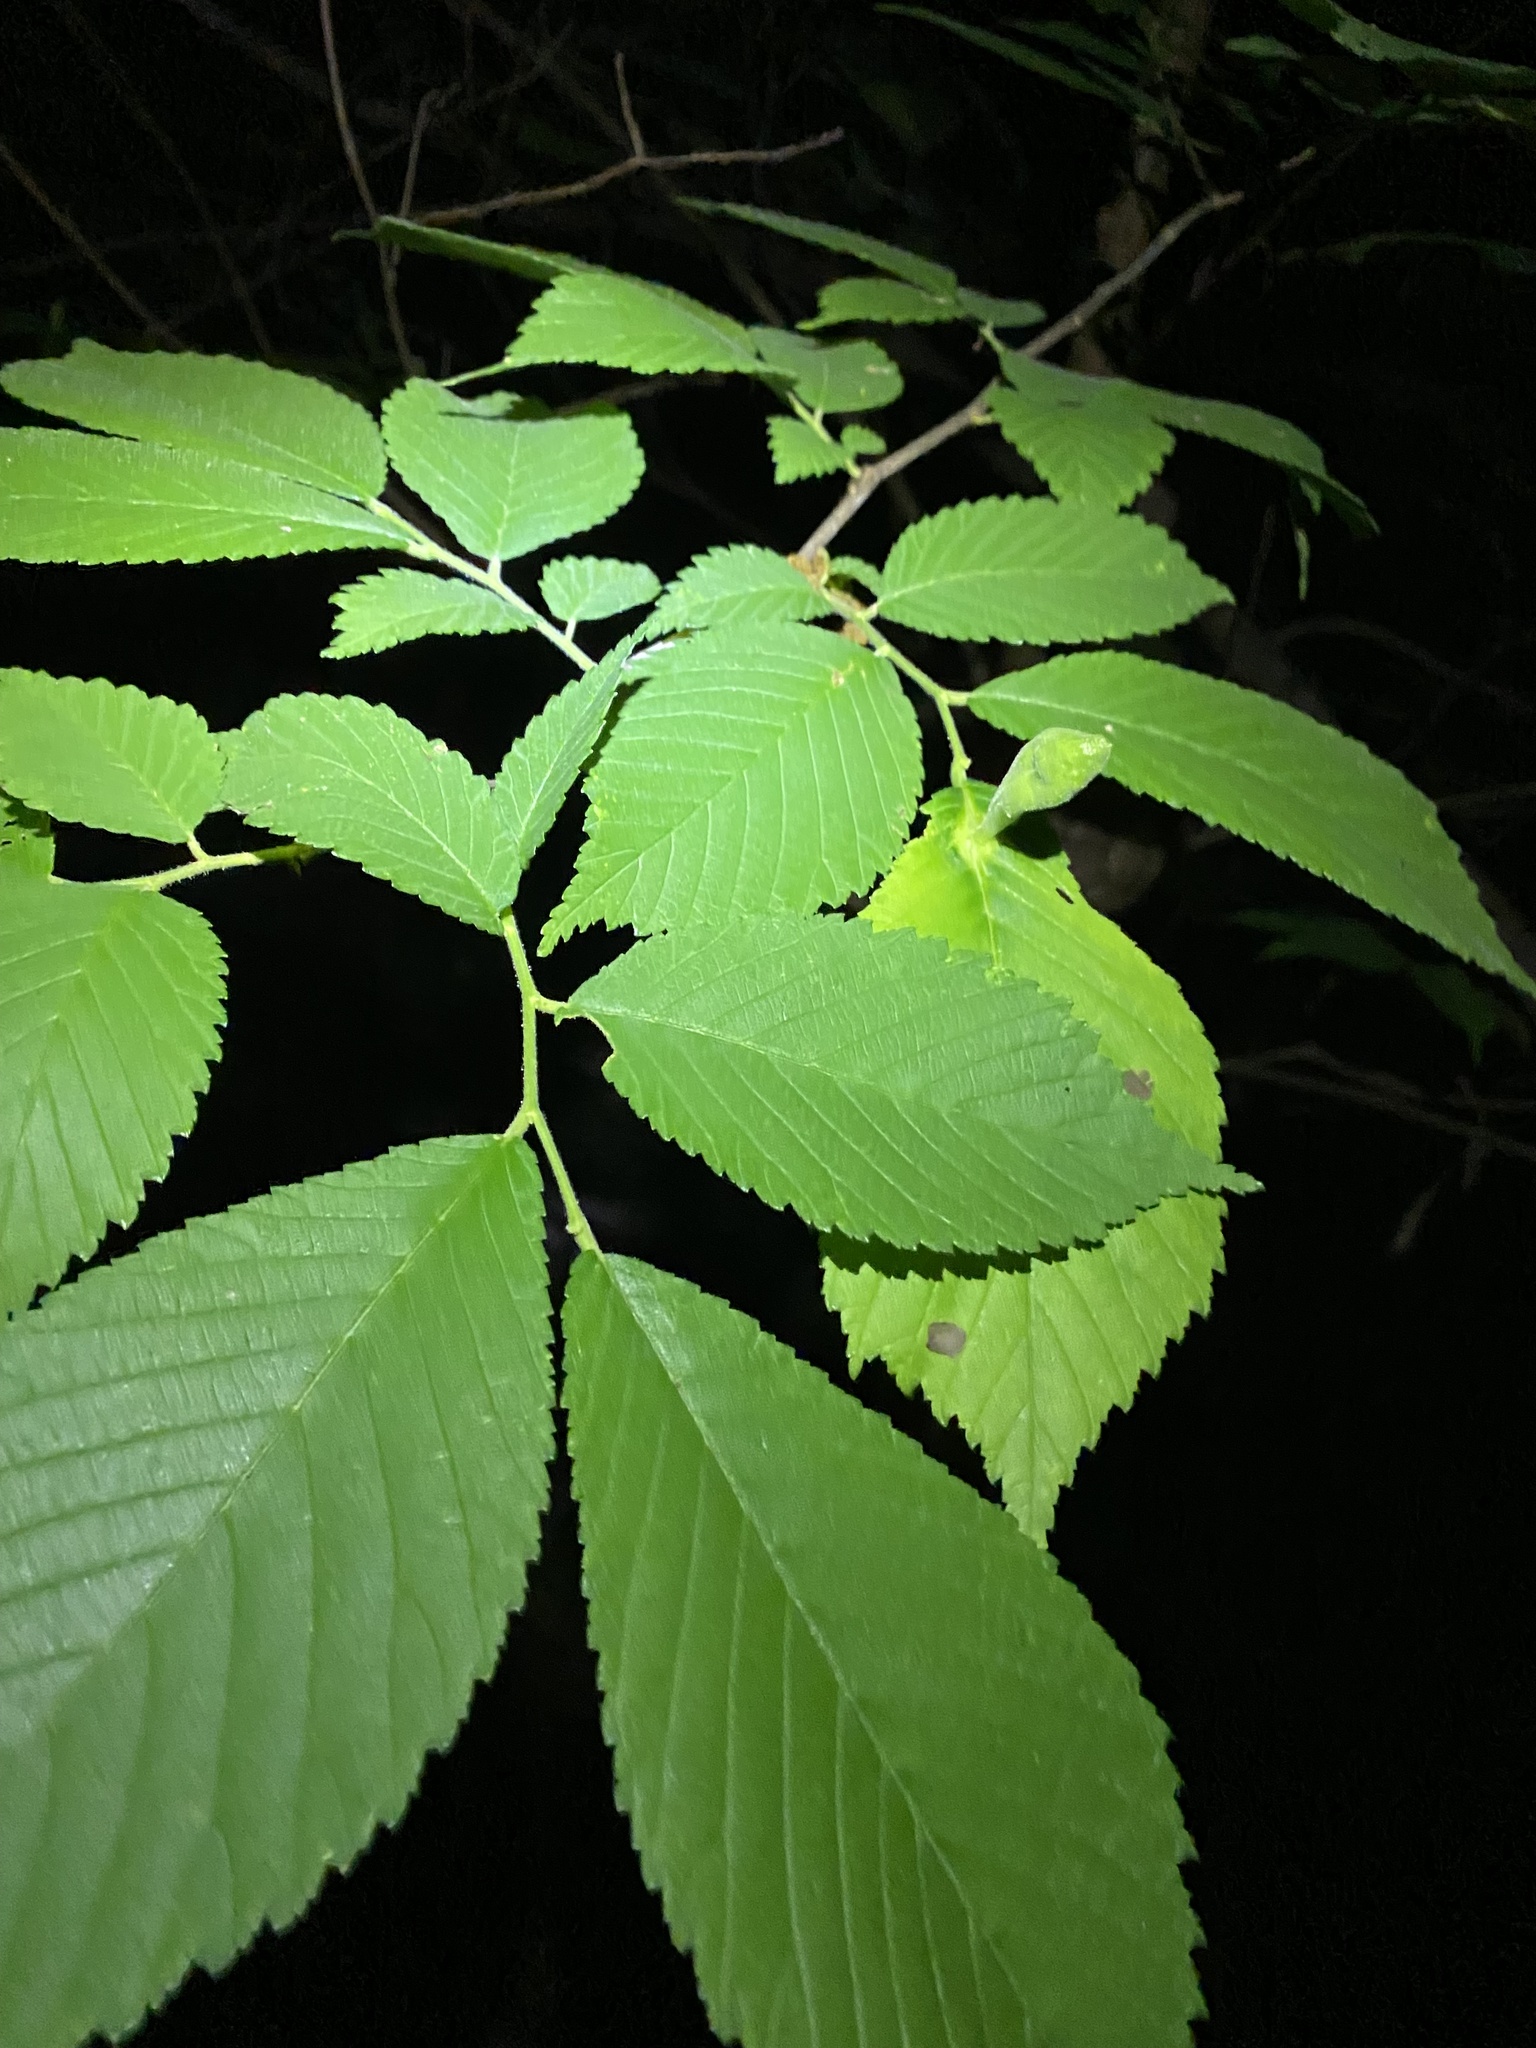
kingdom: Animalia
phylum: Arthropoda
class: Insecta
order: Hemiptera
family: Aphididae
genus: Kaltenbachiella
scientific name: Kaltenbachiella ulmifusa
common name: Elm pouchgall aphid
